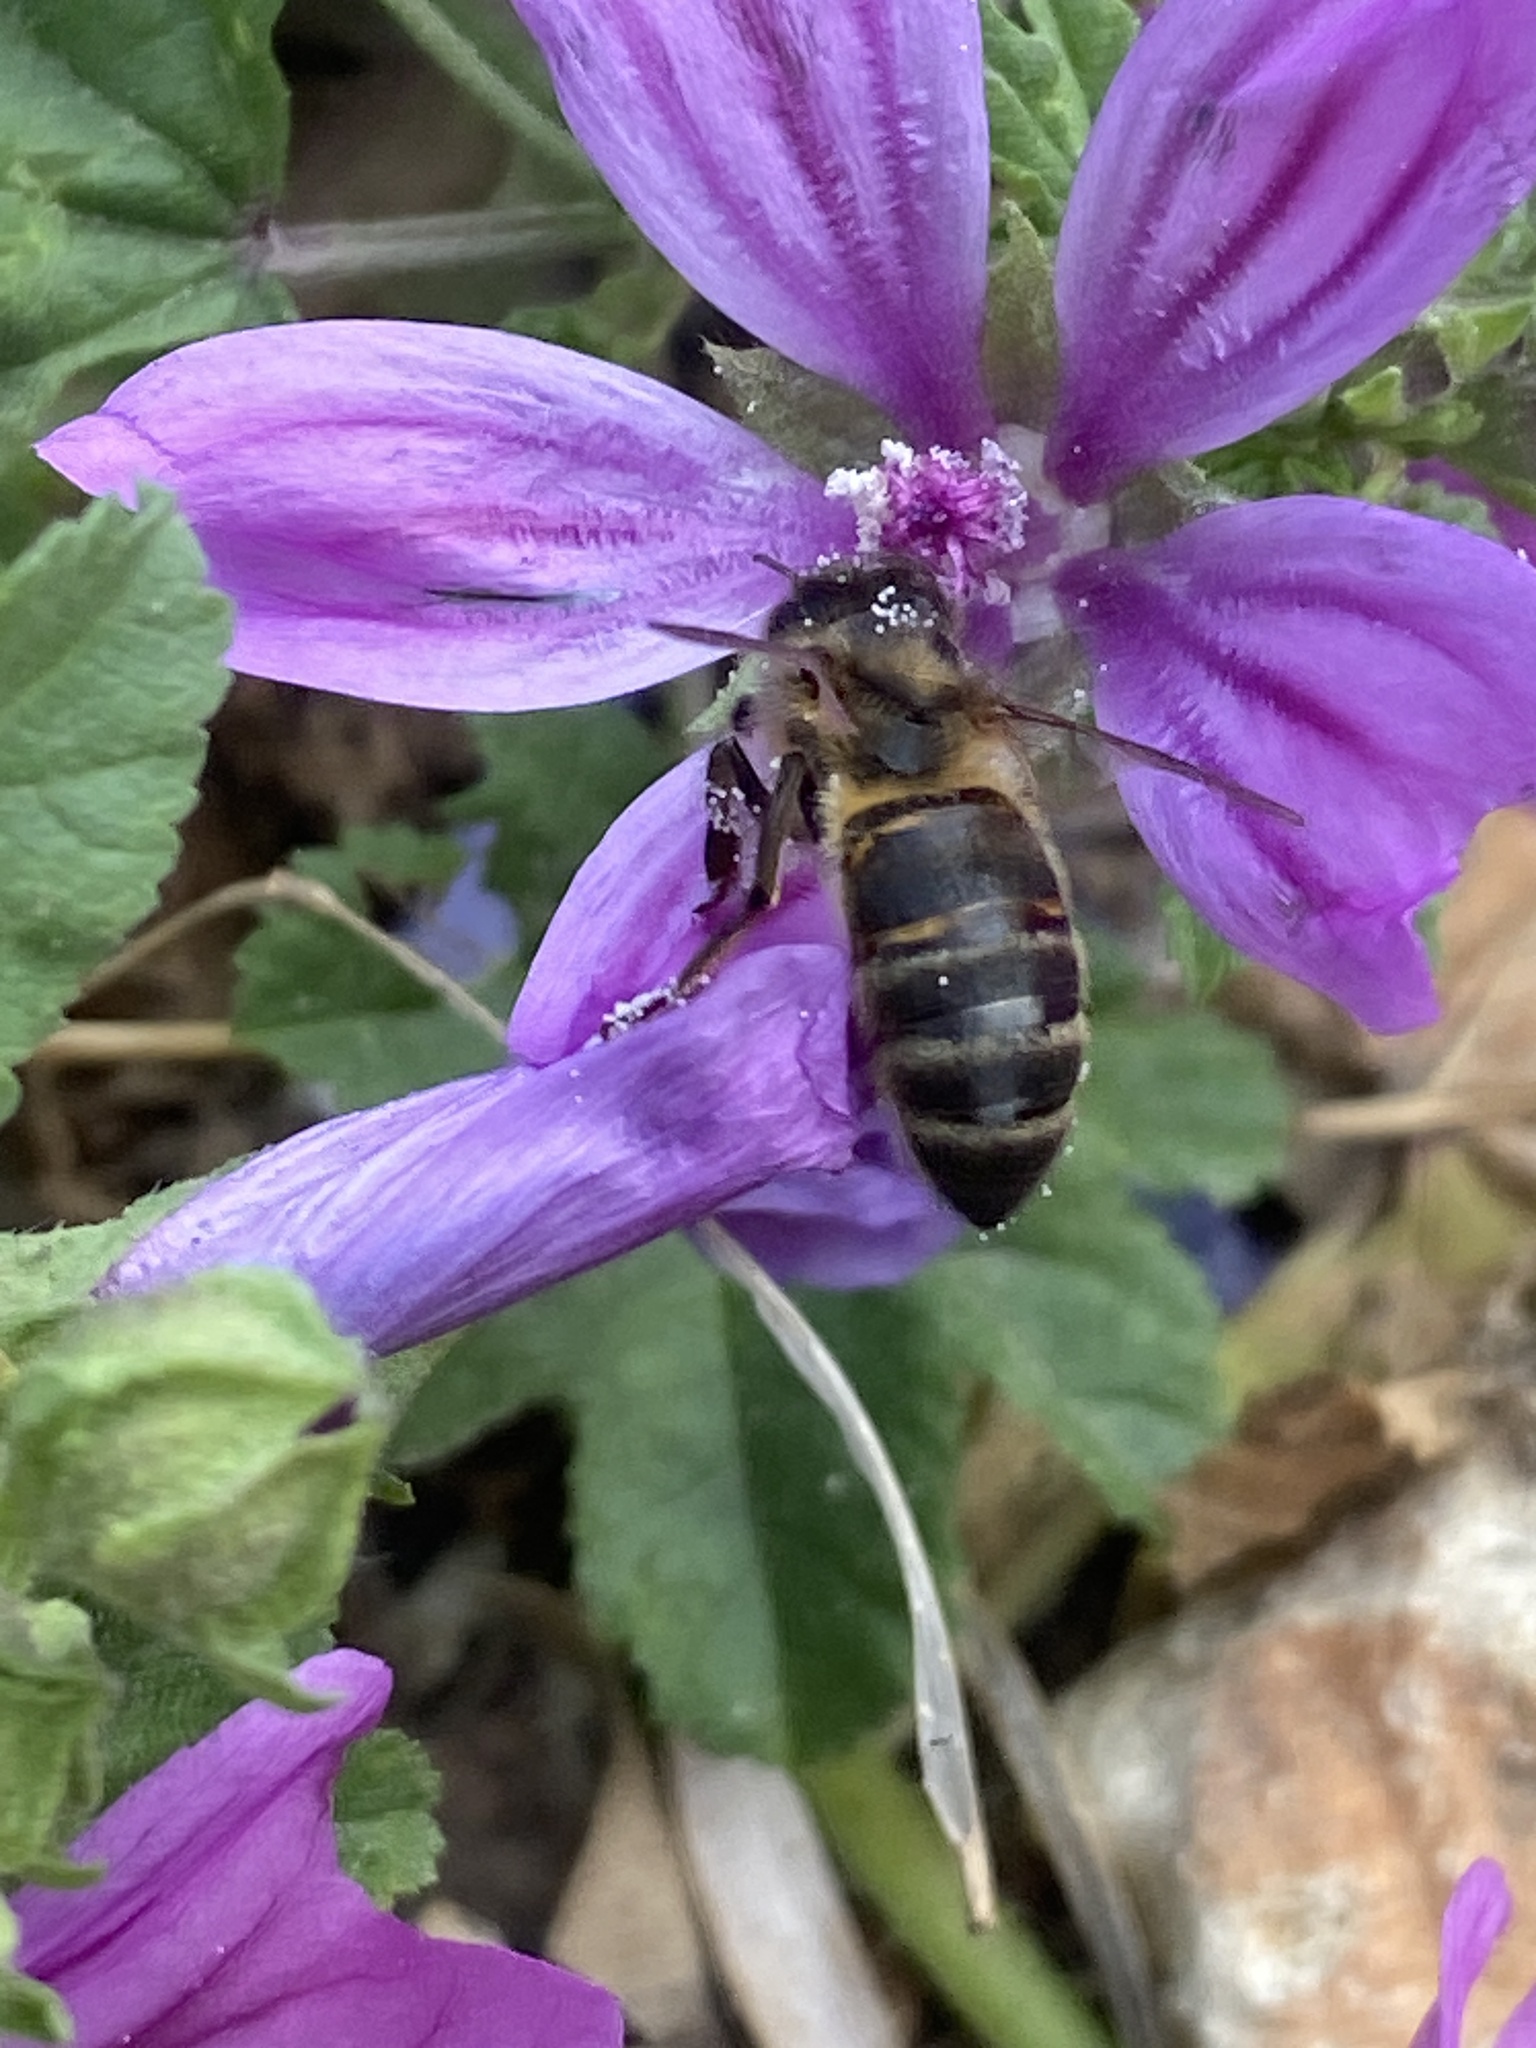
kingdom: Animalia
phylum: Arthropoda
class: Insecta
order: Hymenoptera
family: Apidae
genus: Apis
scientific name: Apis mellifera
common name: Honey bee
